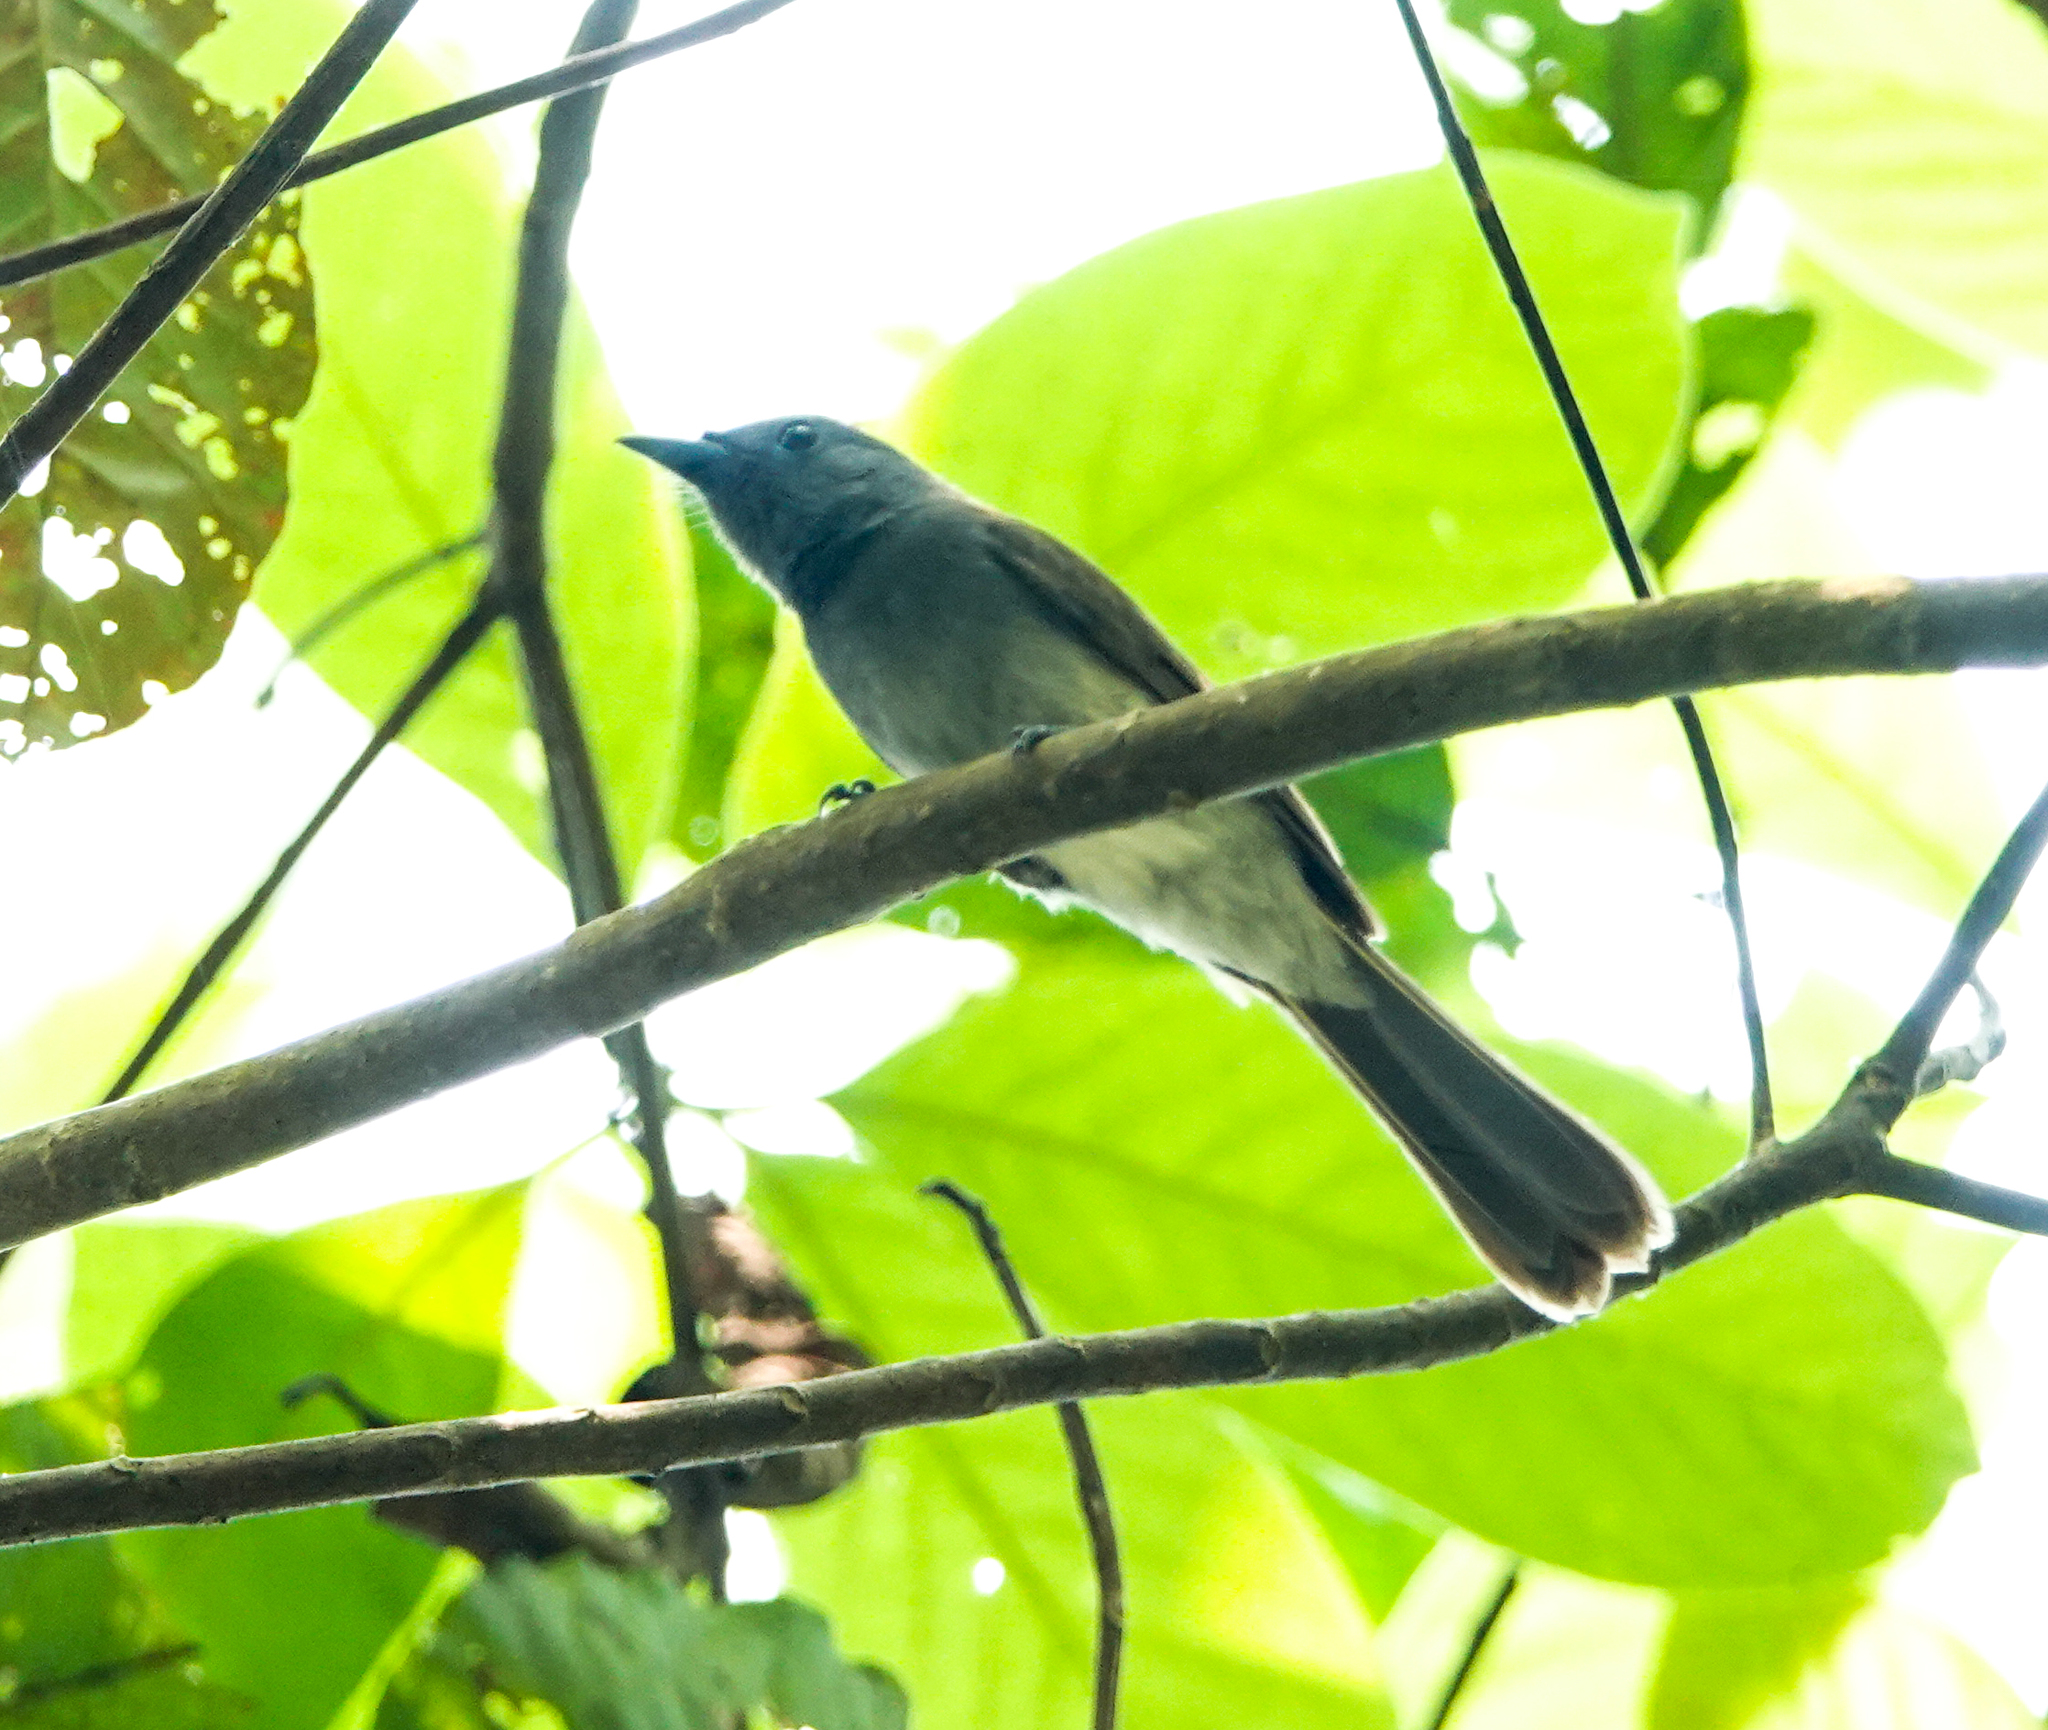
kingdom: Animalia
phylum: Chordata
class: Aves
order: Passeriformes
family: Monarchidae
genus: Hypothymis
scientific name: Hypothymis azurea
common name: Black-naped monarch
